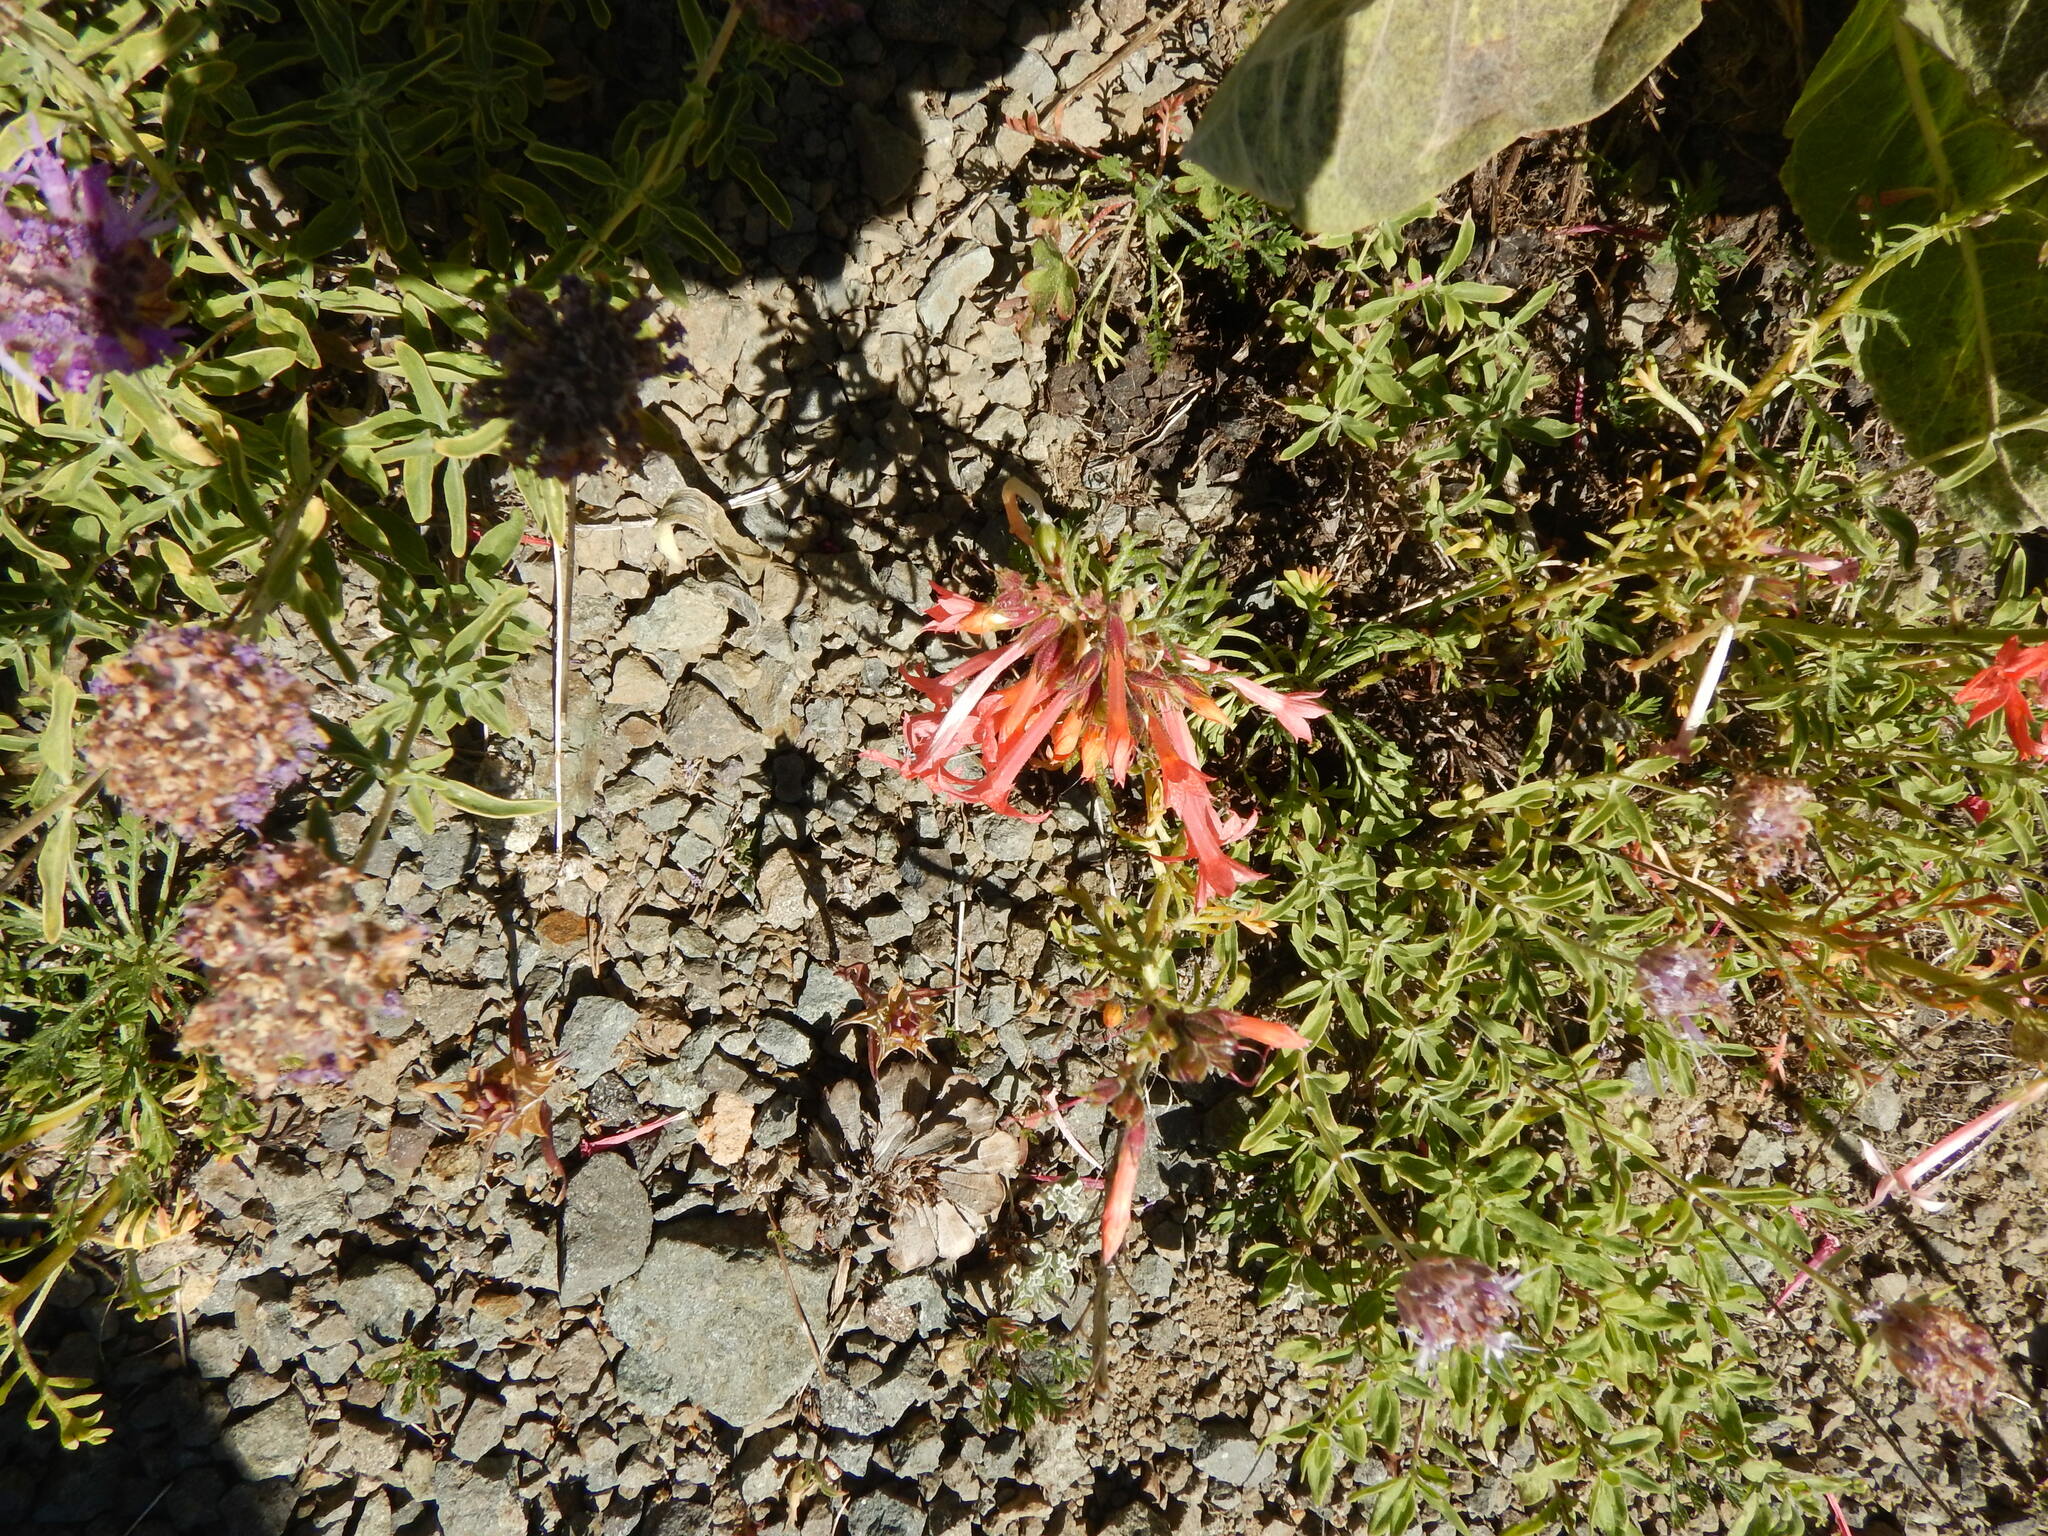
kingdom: Plantae
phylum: Tracheophyta
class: Magnoliopsida
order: Ericales
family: Polemoniaceae
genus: Ipomopsis
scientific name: Ipomopsis aggregata
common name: Scarlet gilia
